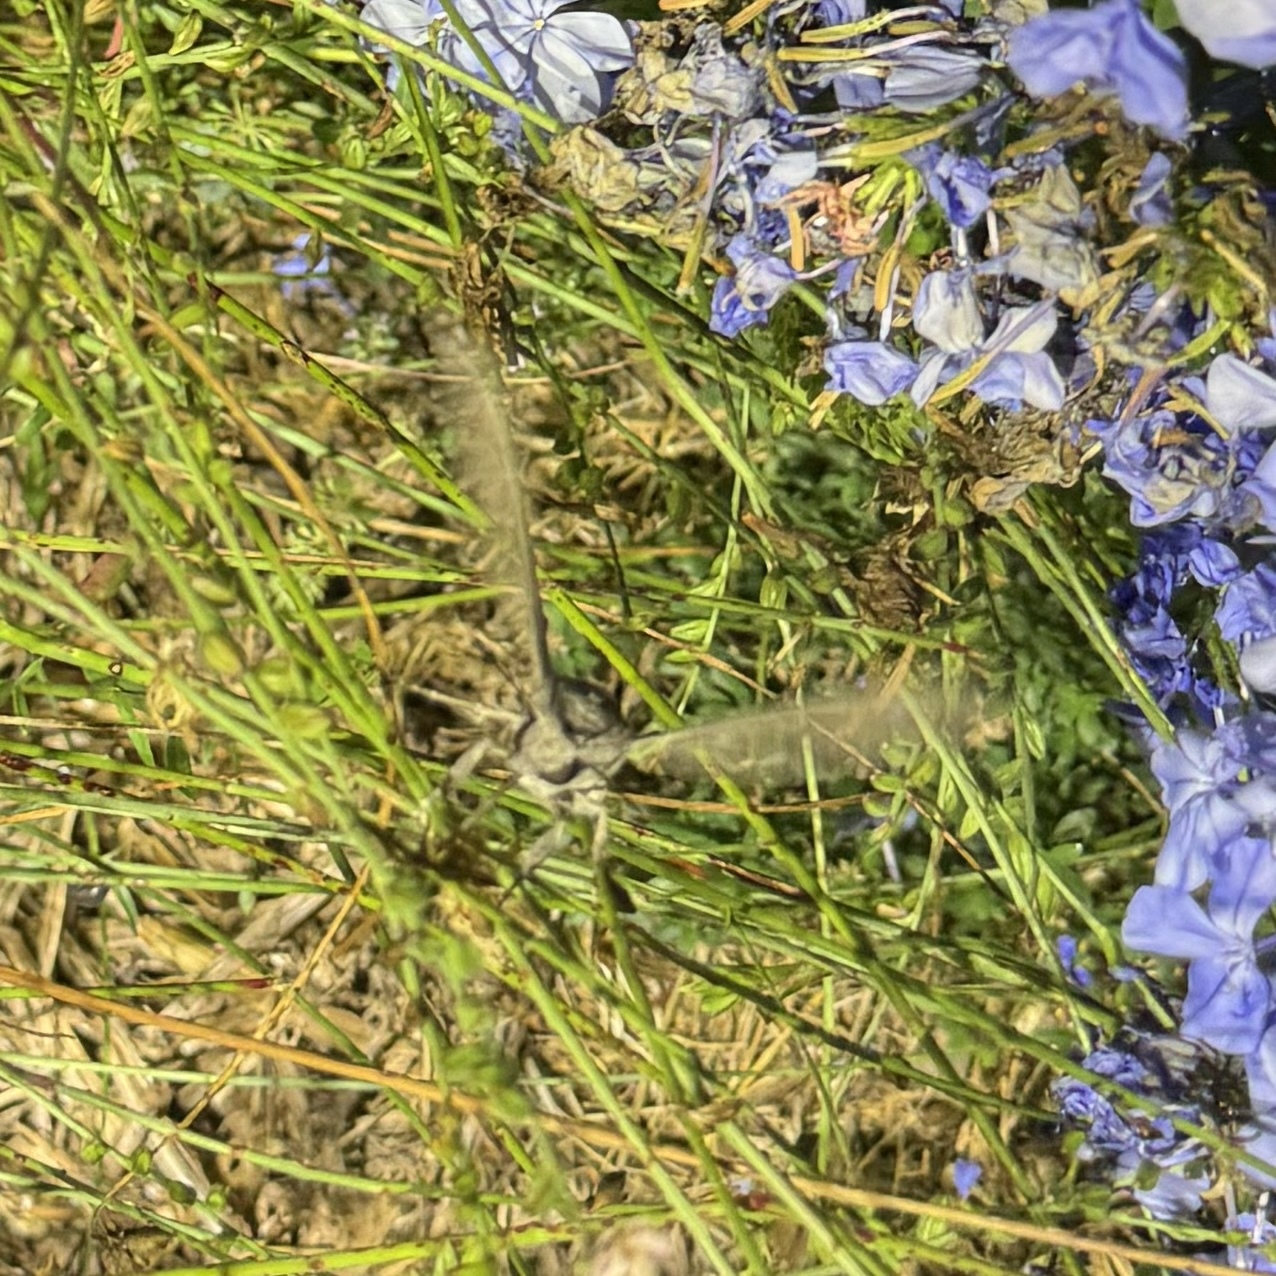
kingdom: Animalia
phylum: Arthropoda
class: Insecta
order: Lepidoptera
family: Sphingidae
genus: Agrius
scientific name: Agrius convolvuli
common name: Convolvulus hawkmoth
